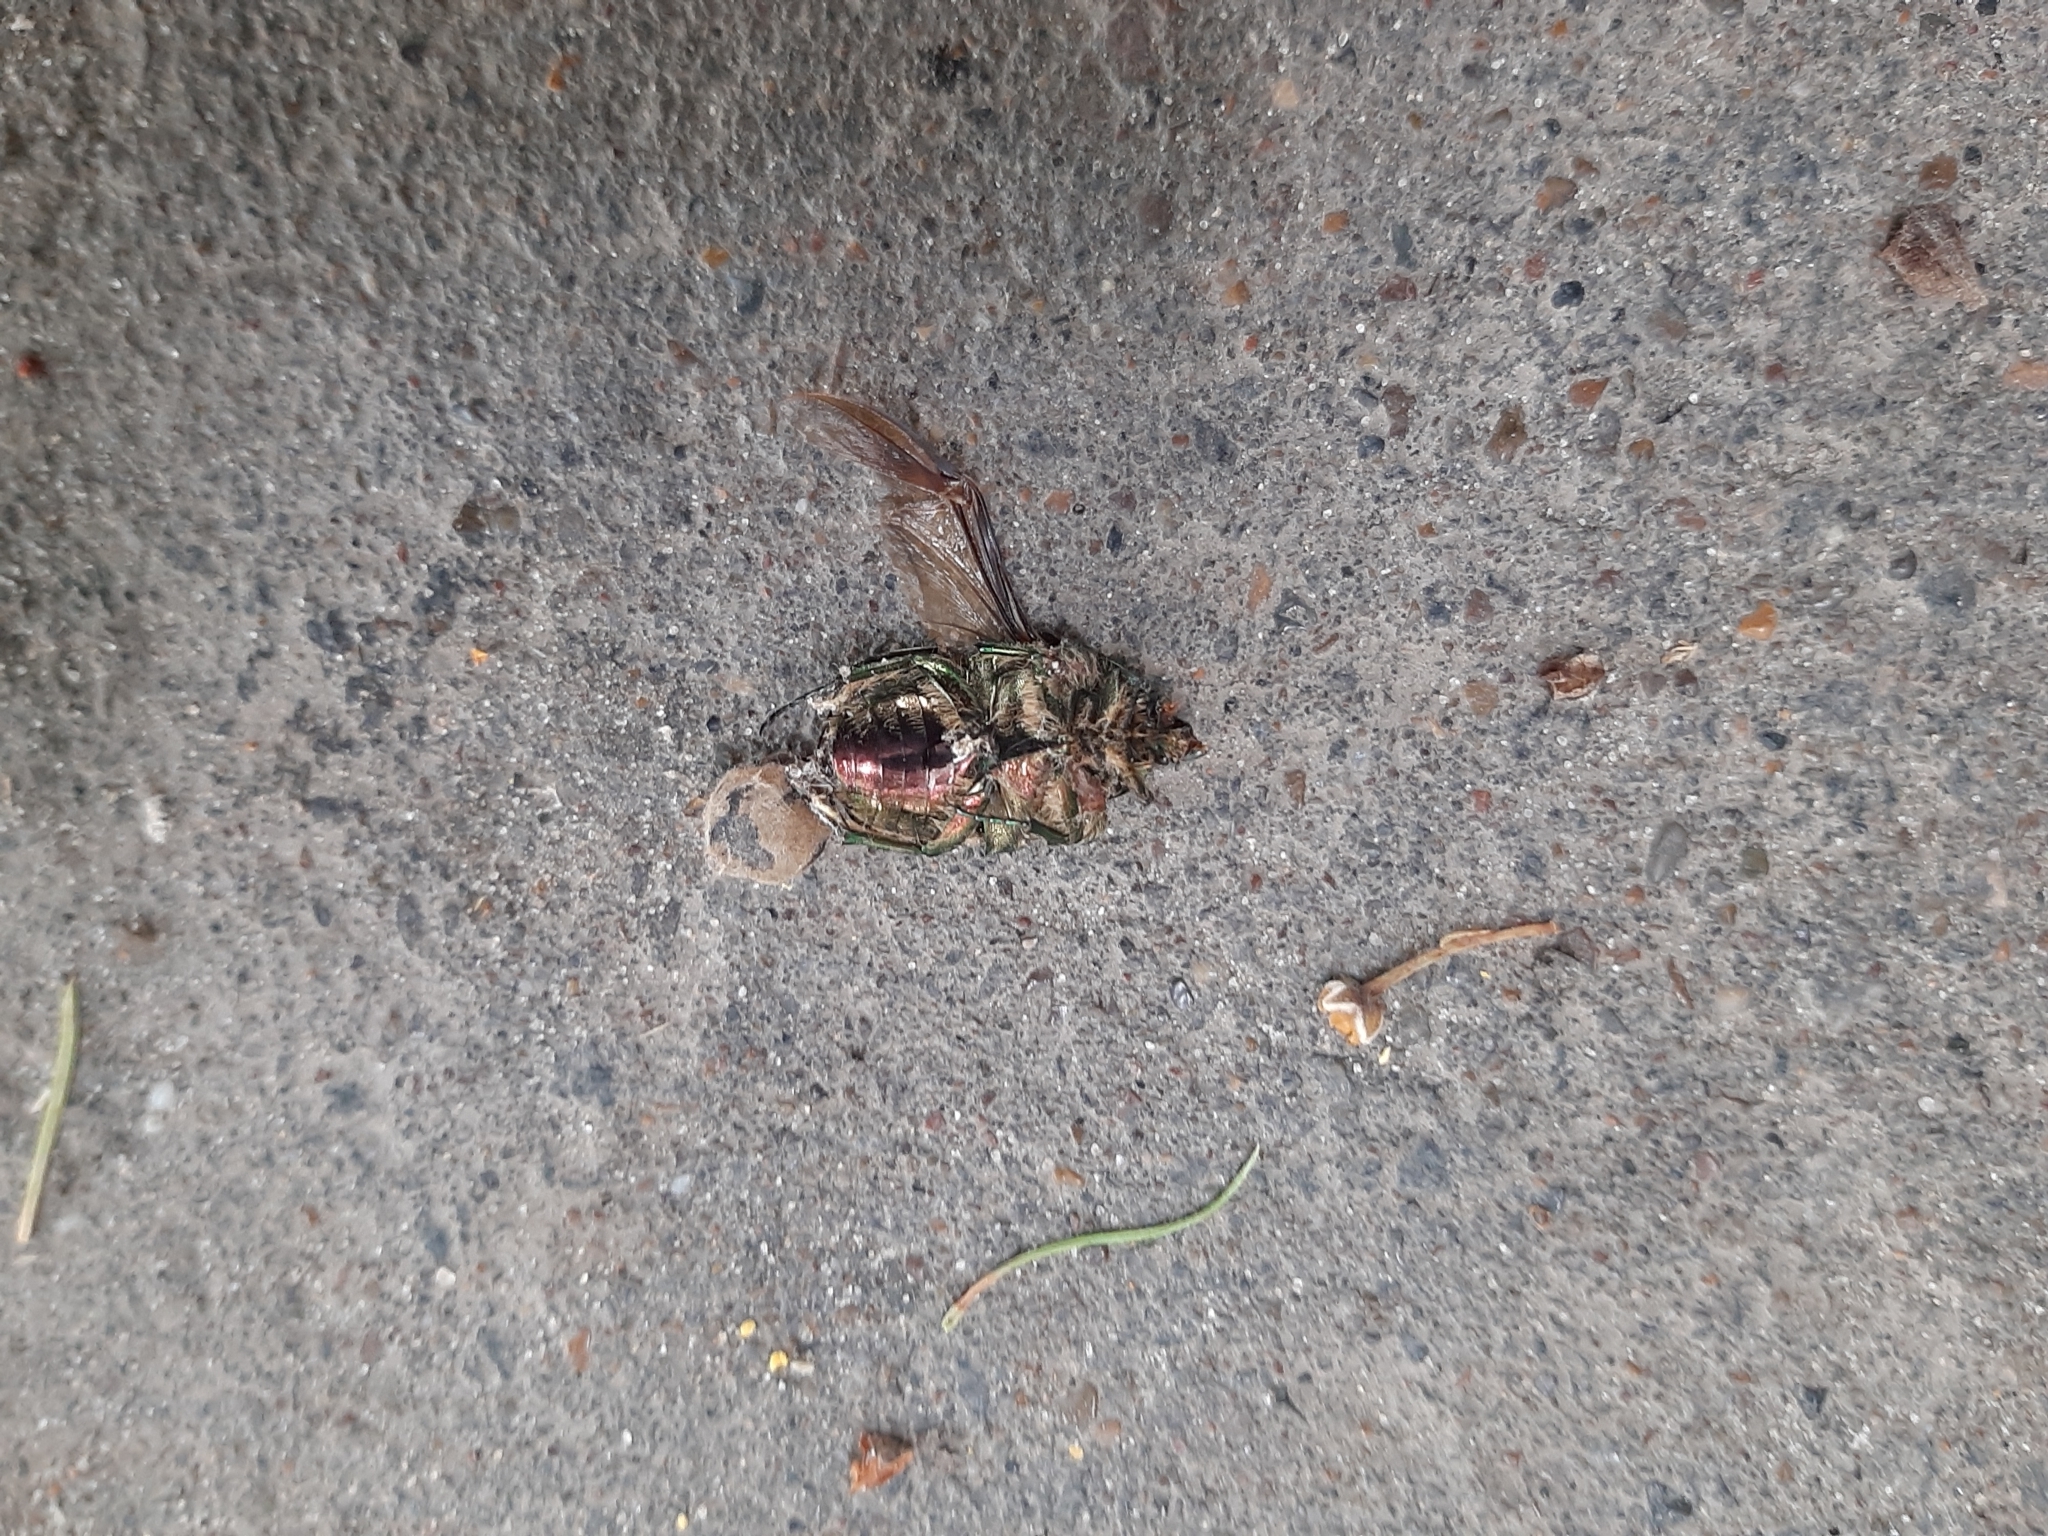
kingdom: Animalia
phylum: Arthropoda
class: Insecta
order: Coleoptera
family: Scarabaeidae
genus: Cetonia
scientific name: Cetonia aurata
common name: Rose chafer
